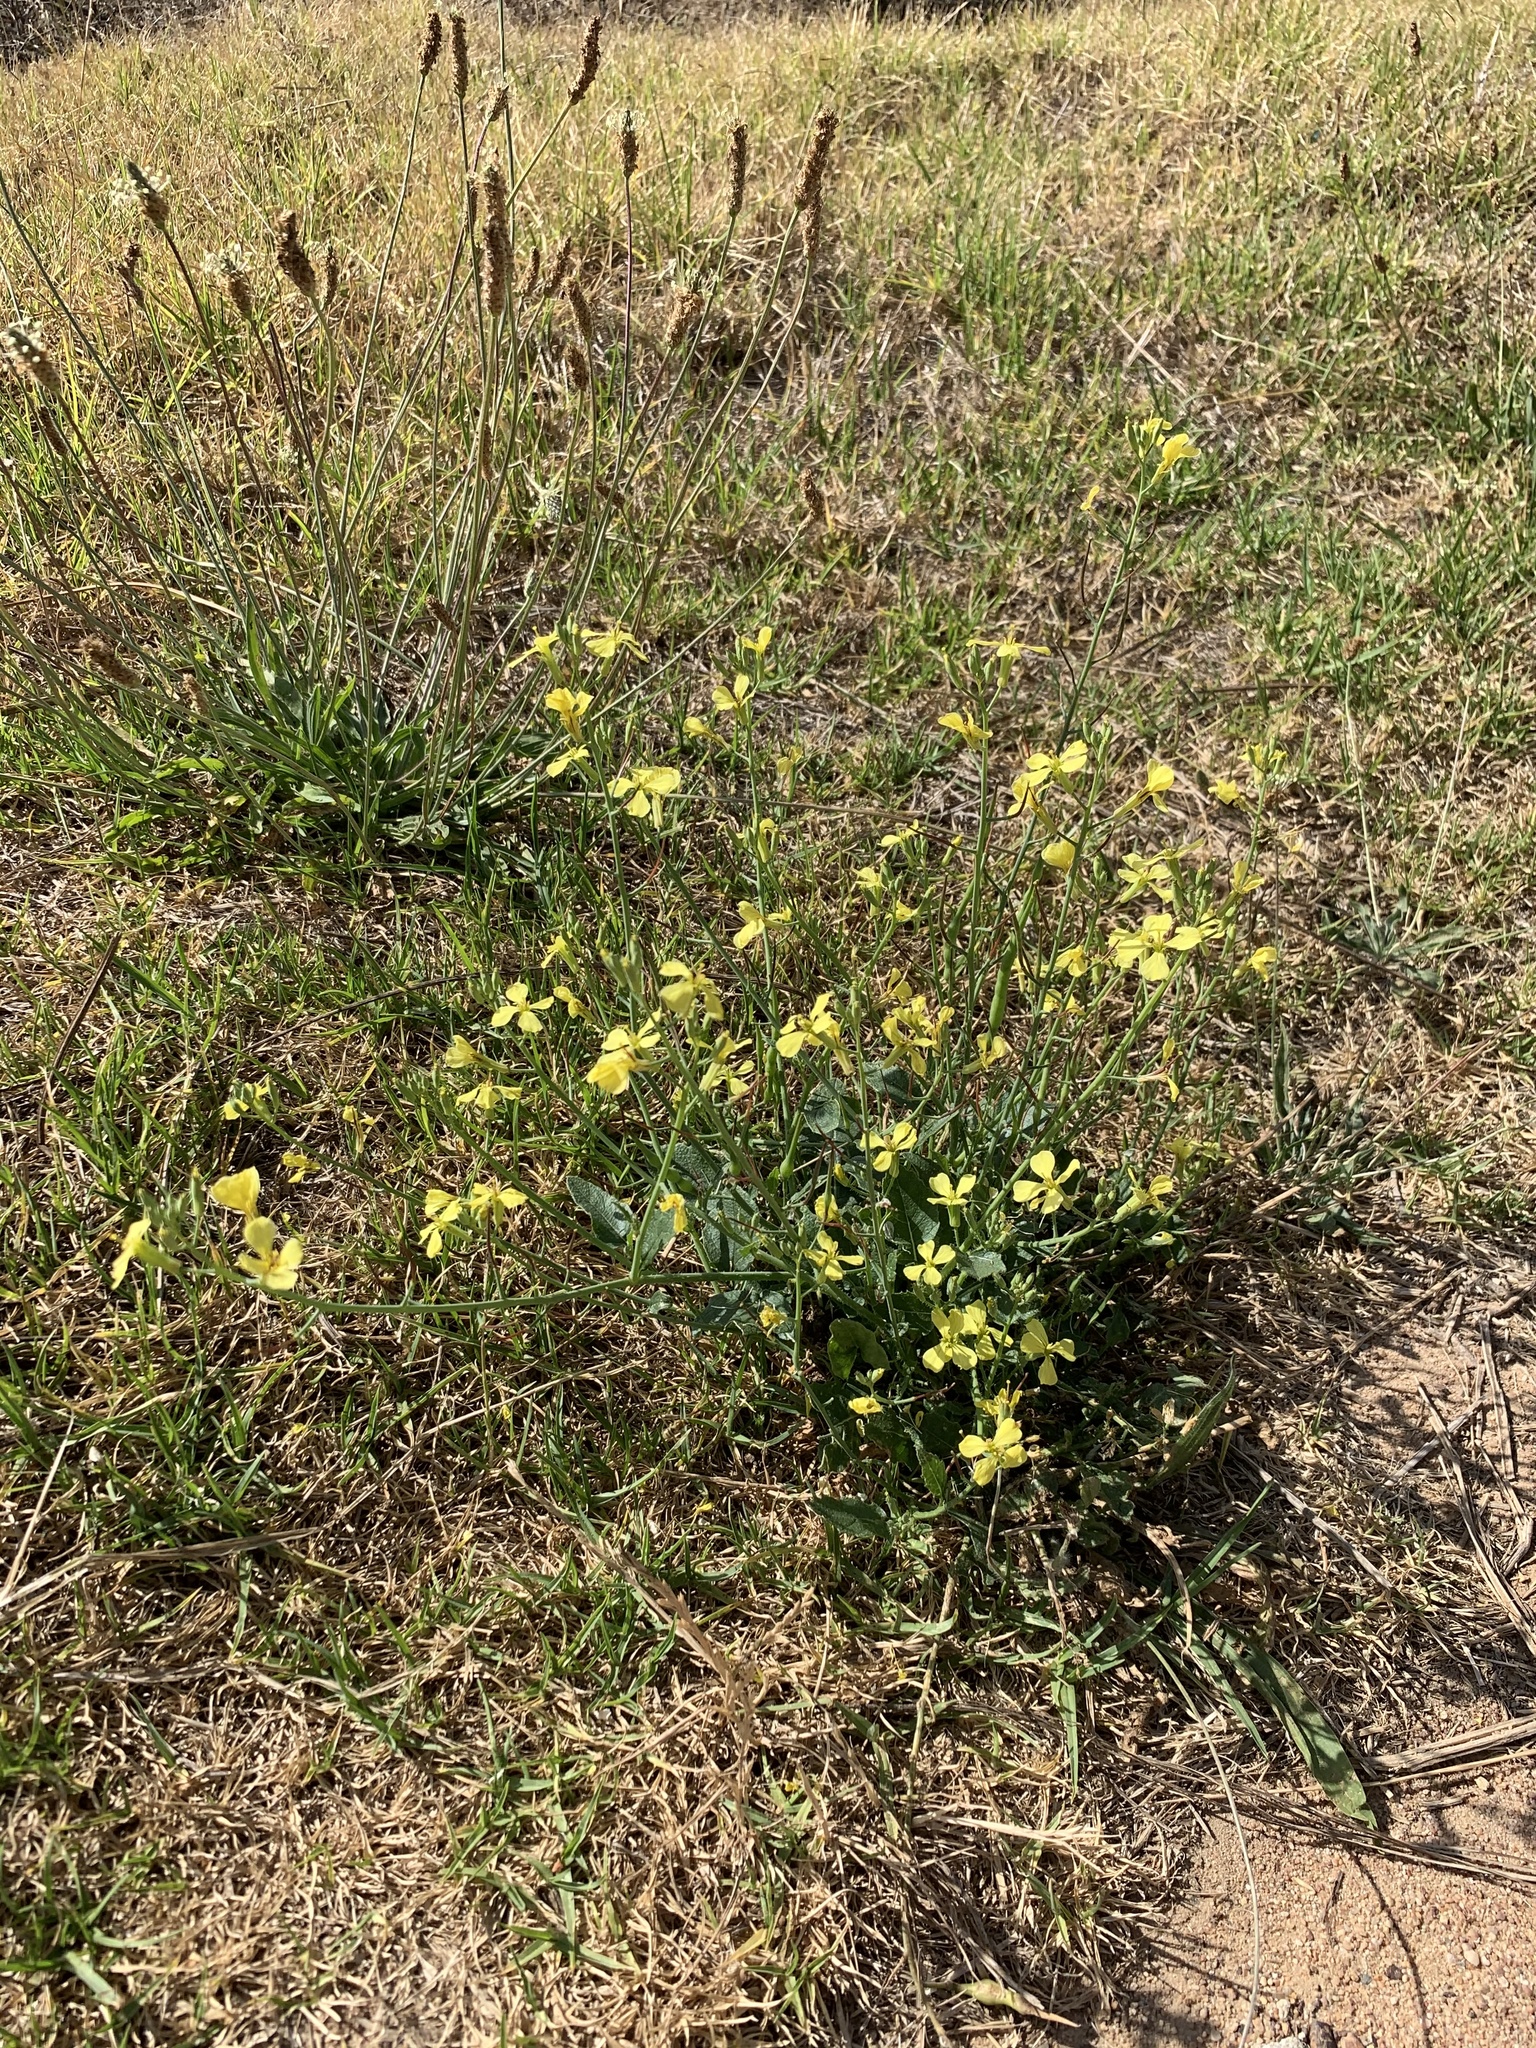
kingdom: Plantae
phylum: Tracheophyta
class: Magnoliopsida
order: Brassicales
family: Brassicaceae
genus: Raphanus
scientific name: Raphanus raphanistrum
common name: Wild radish
